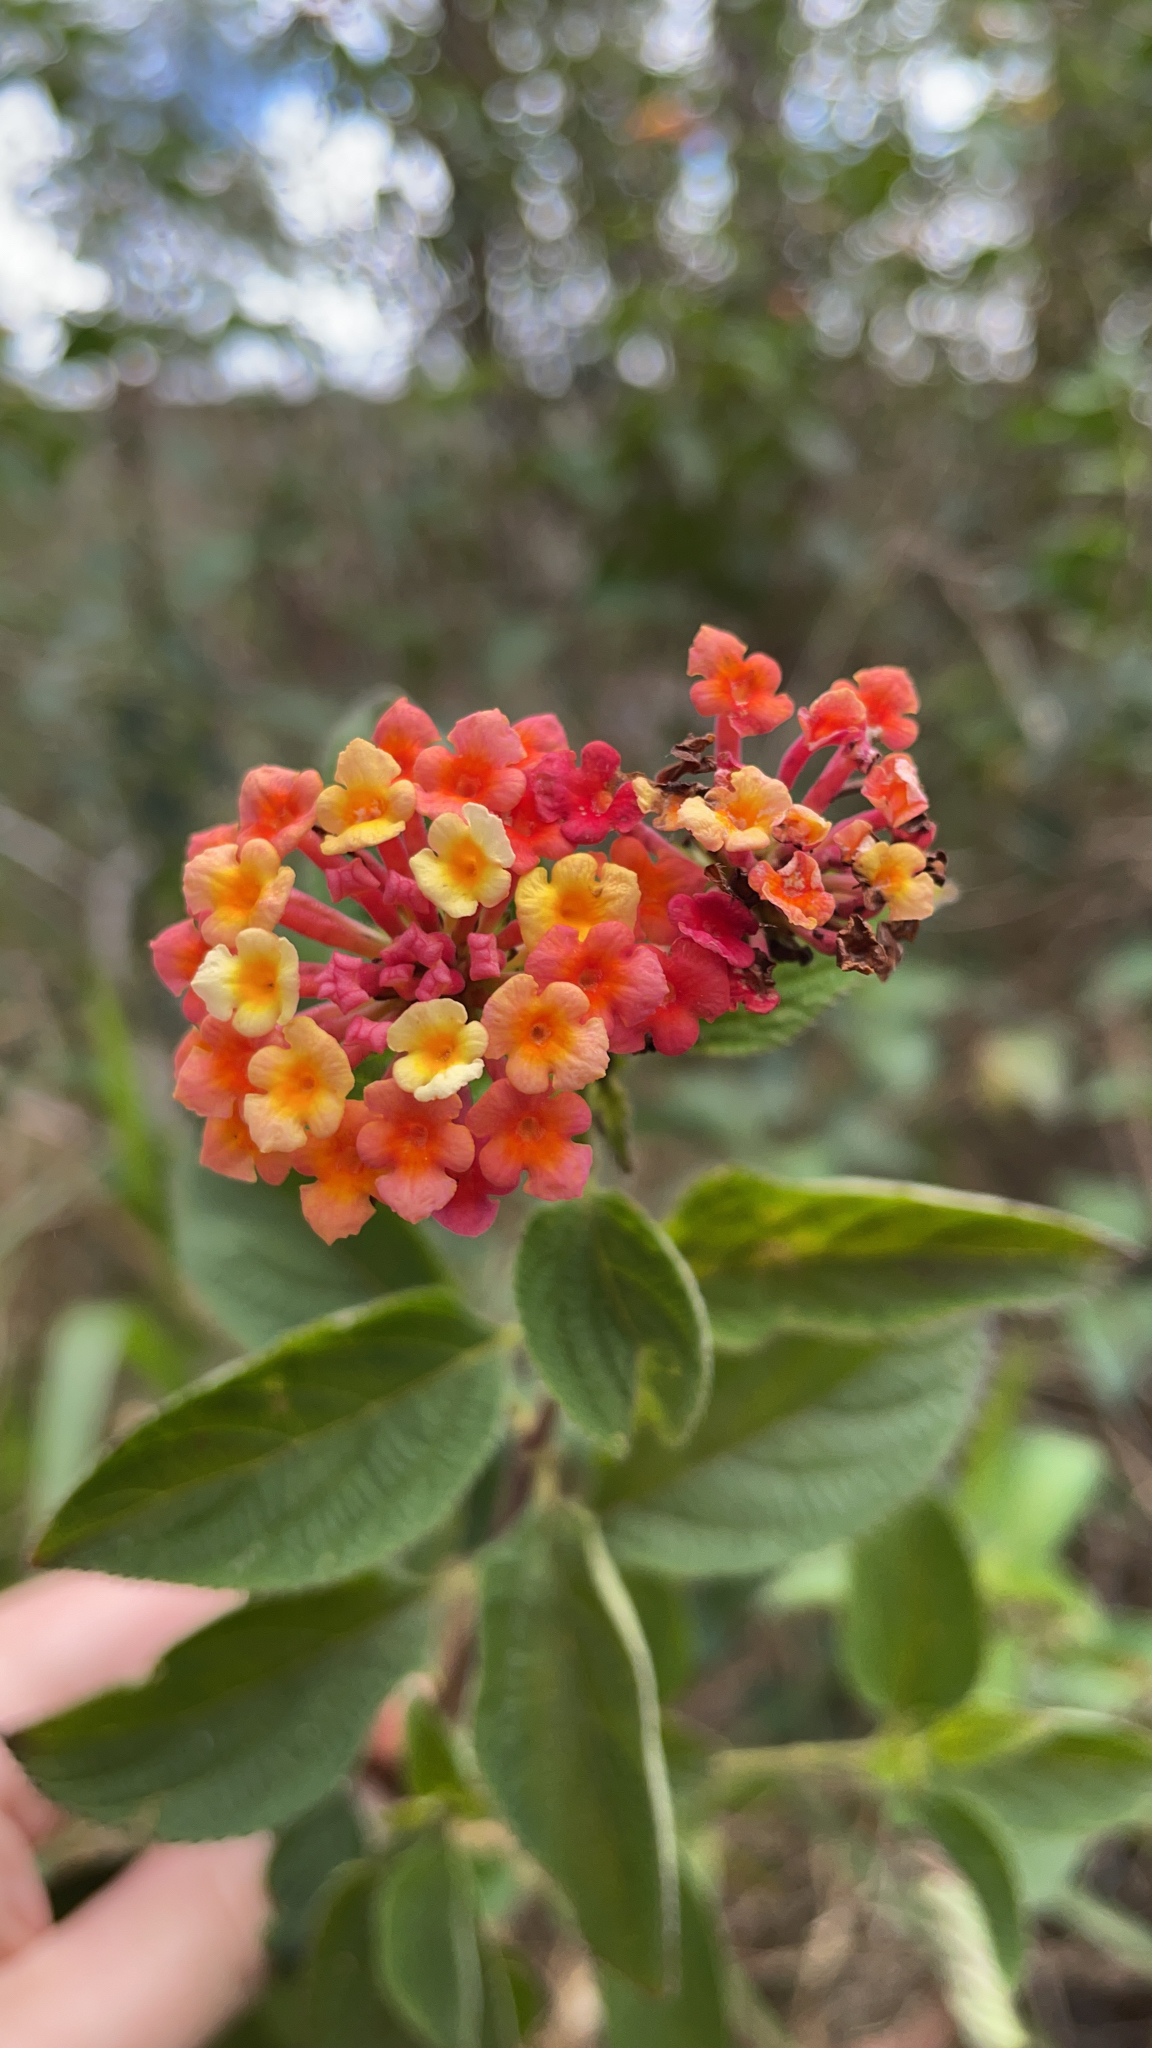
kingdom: Plantae
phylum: Tracheophyta
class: Magnoliopsida
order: Lamiales
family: Verbenaceae
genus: Lantana
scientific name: Lantana camara
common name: Lantana
